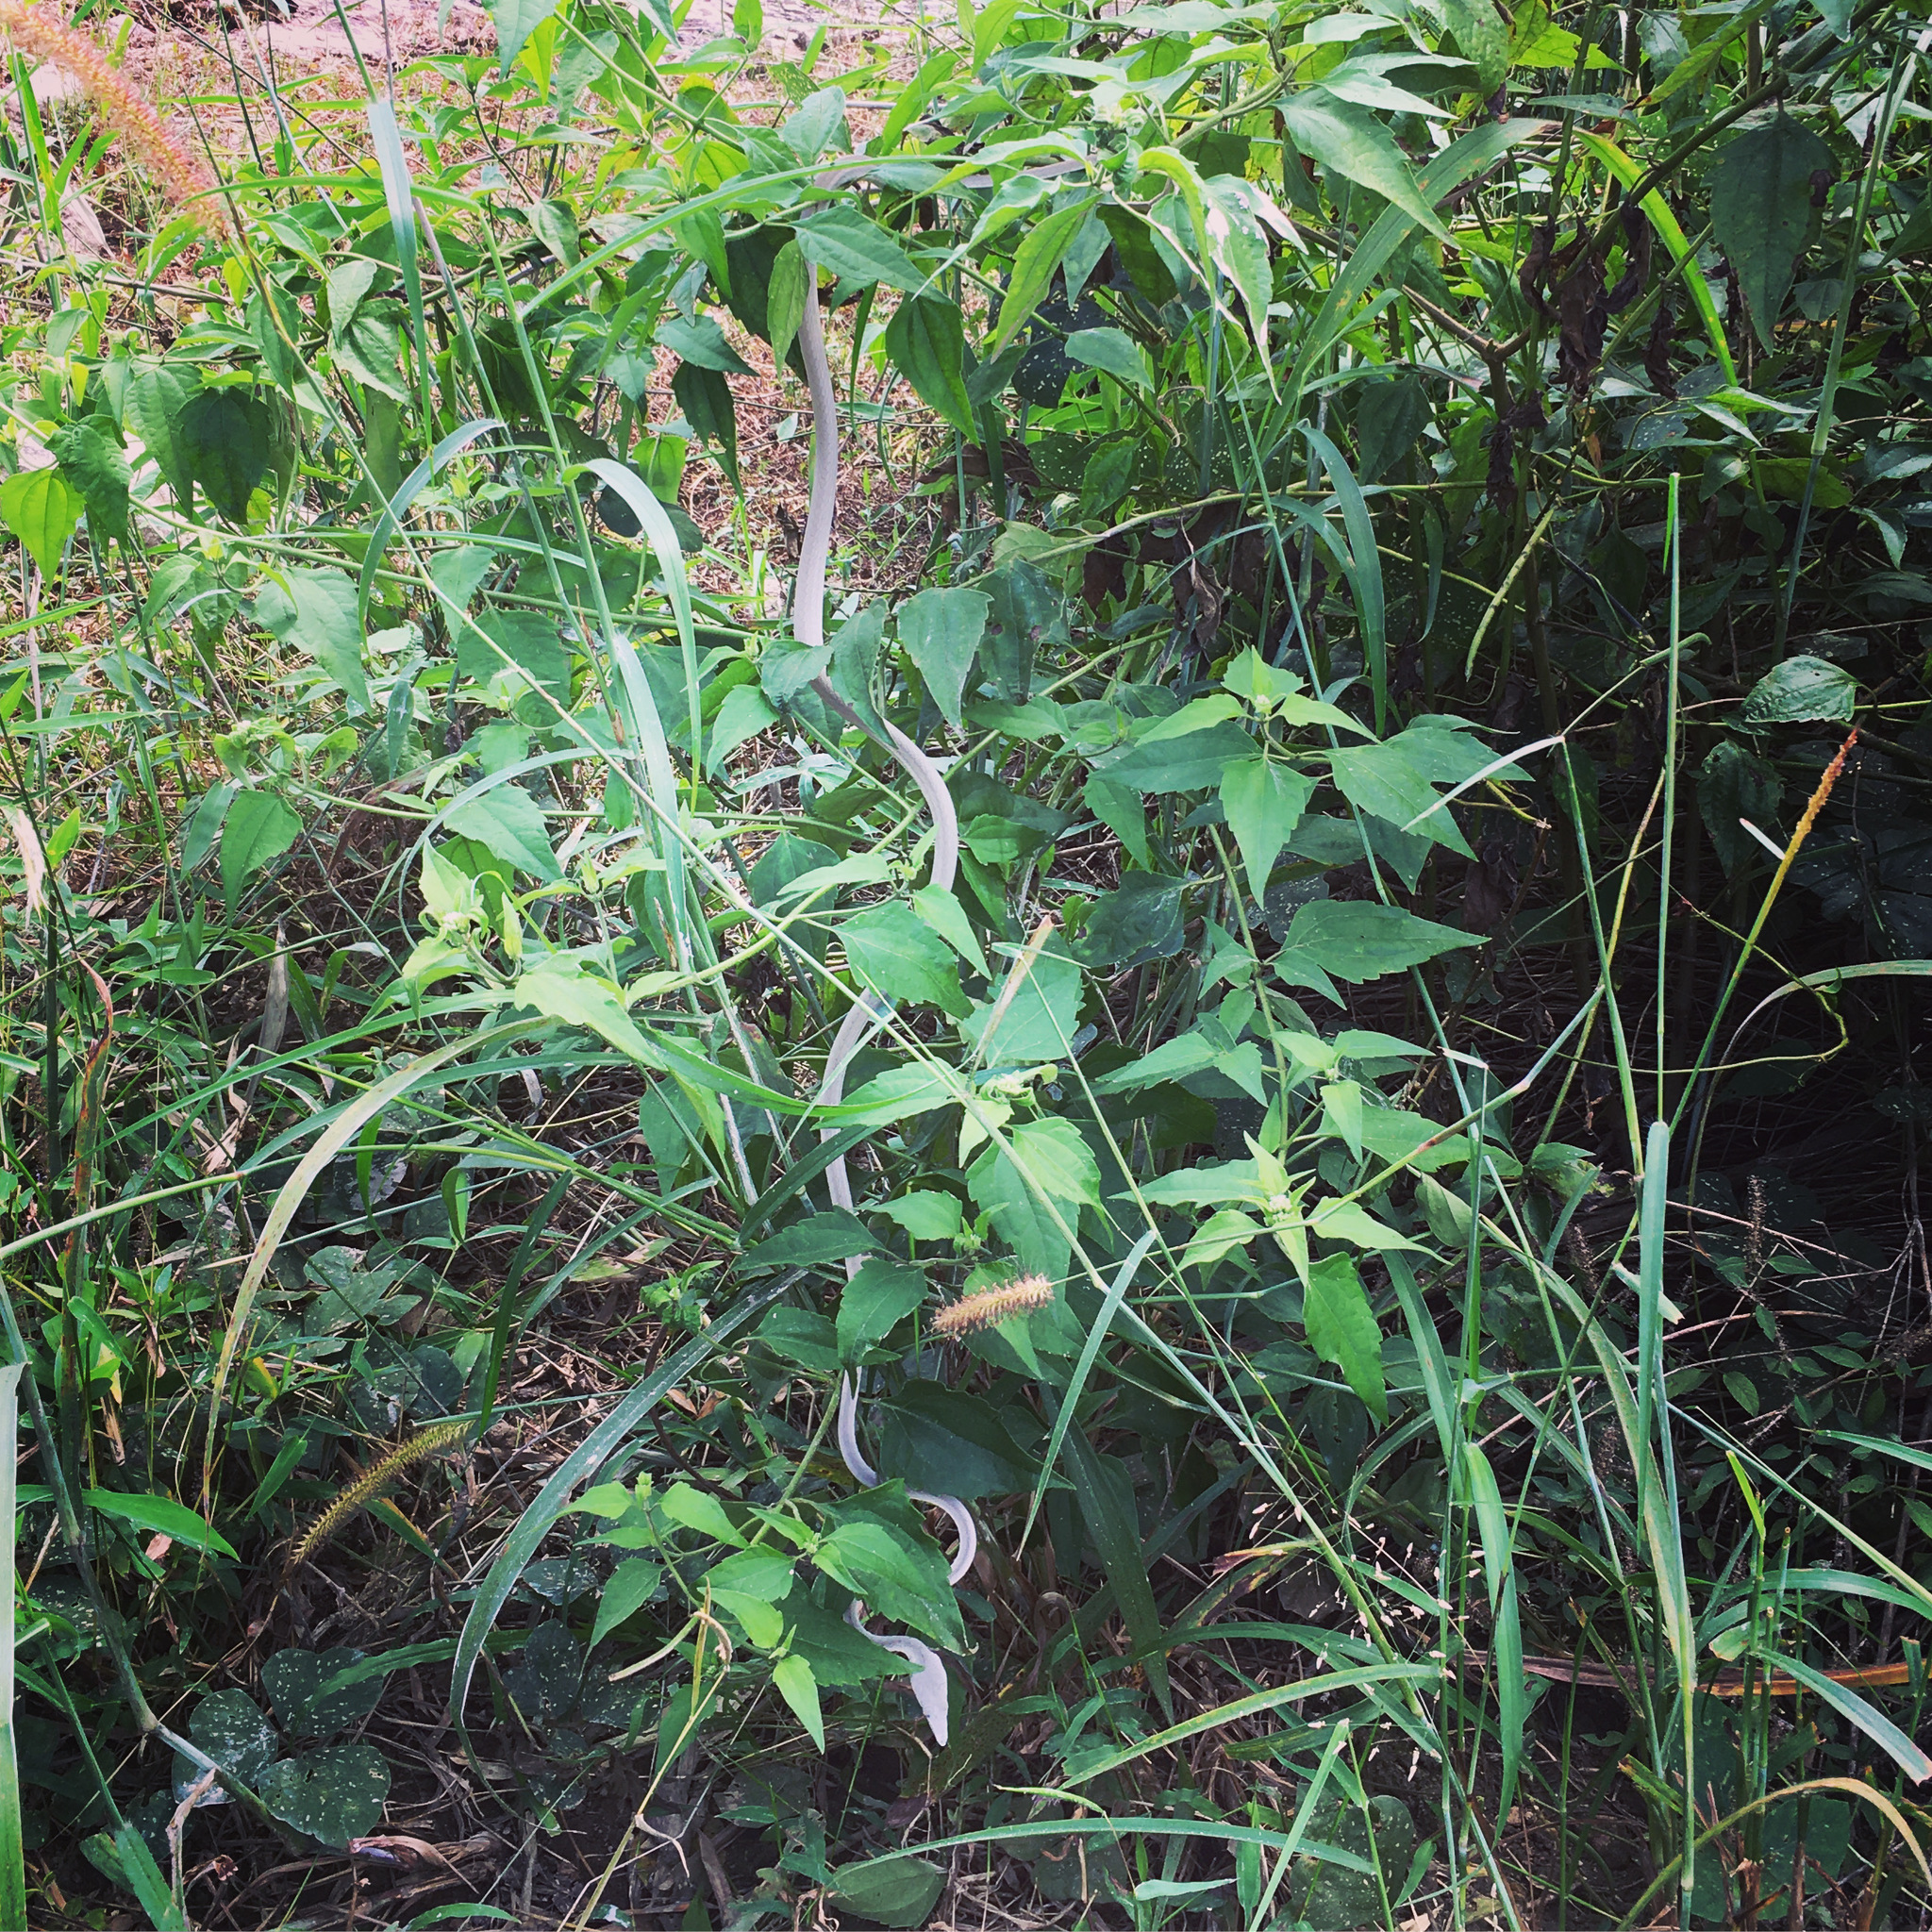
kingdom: Animalia
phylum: Chordata
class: Squamata
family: Colubridae
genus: Ahaetulla
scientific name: Ahaetulla prasina
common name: Oriental whip snake
